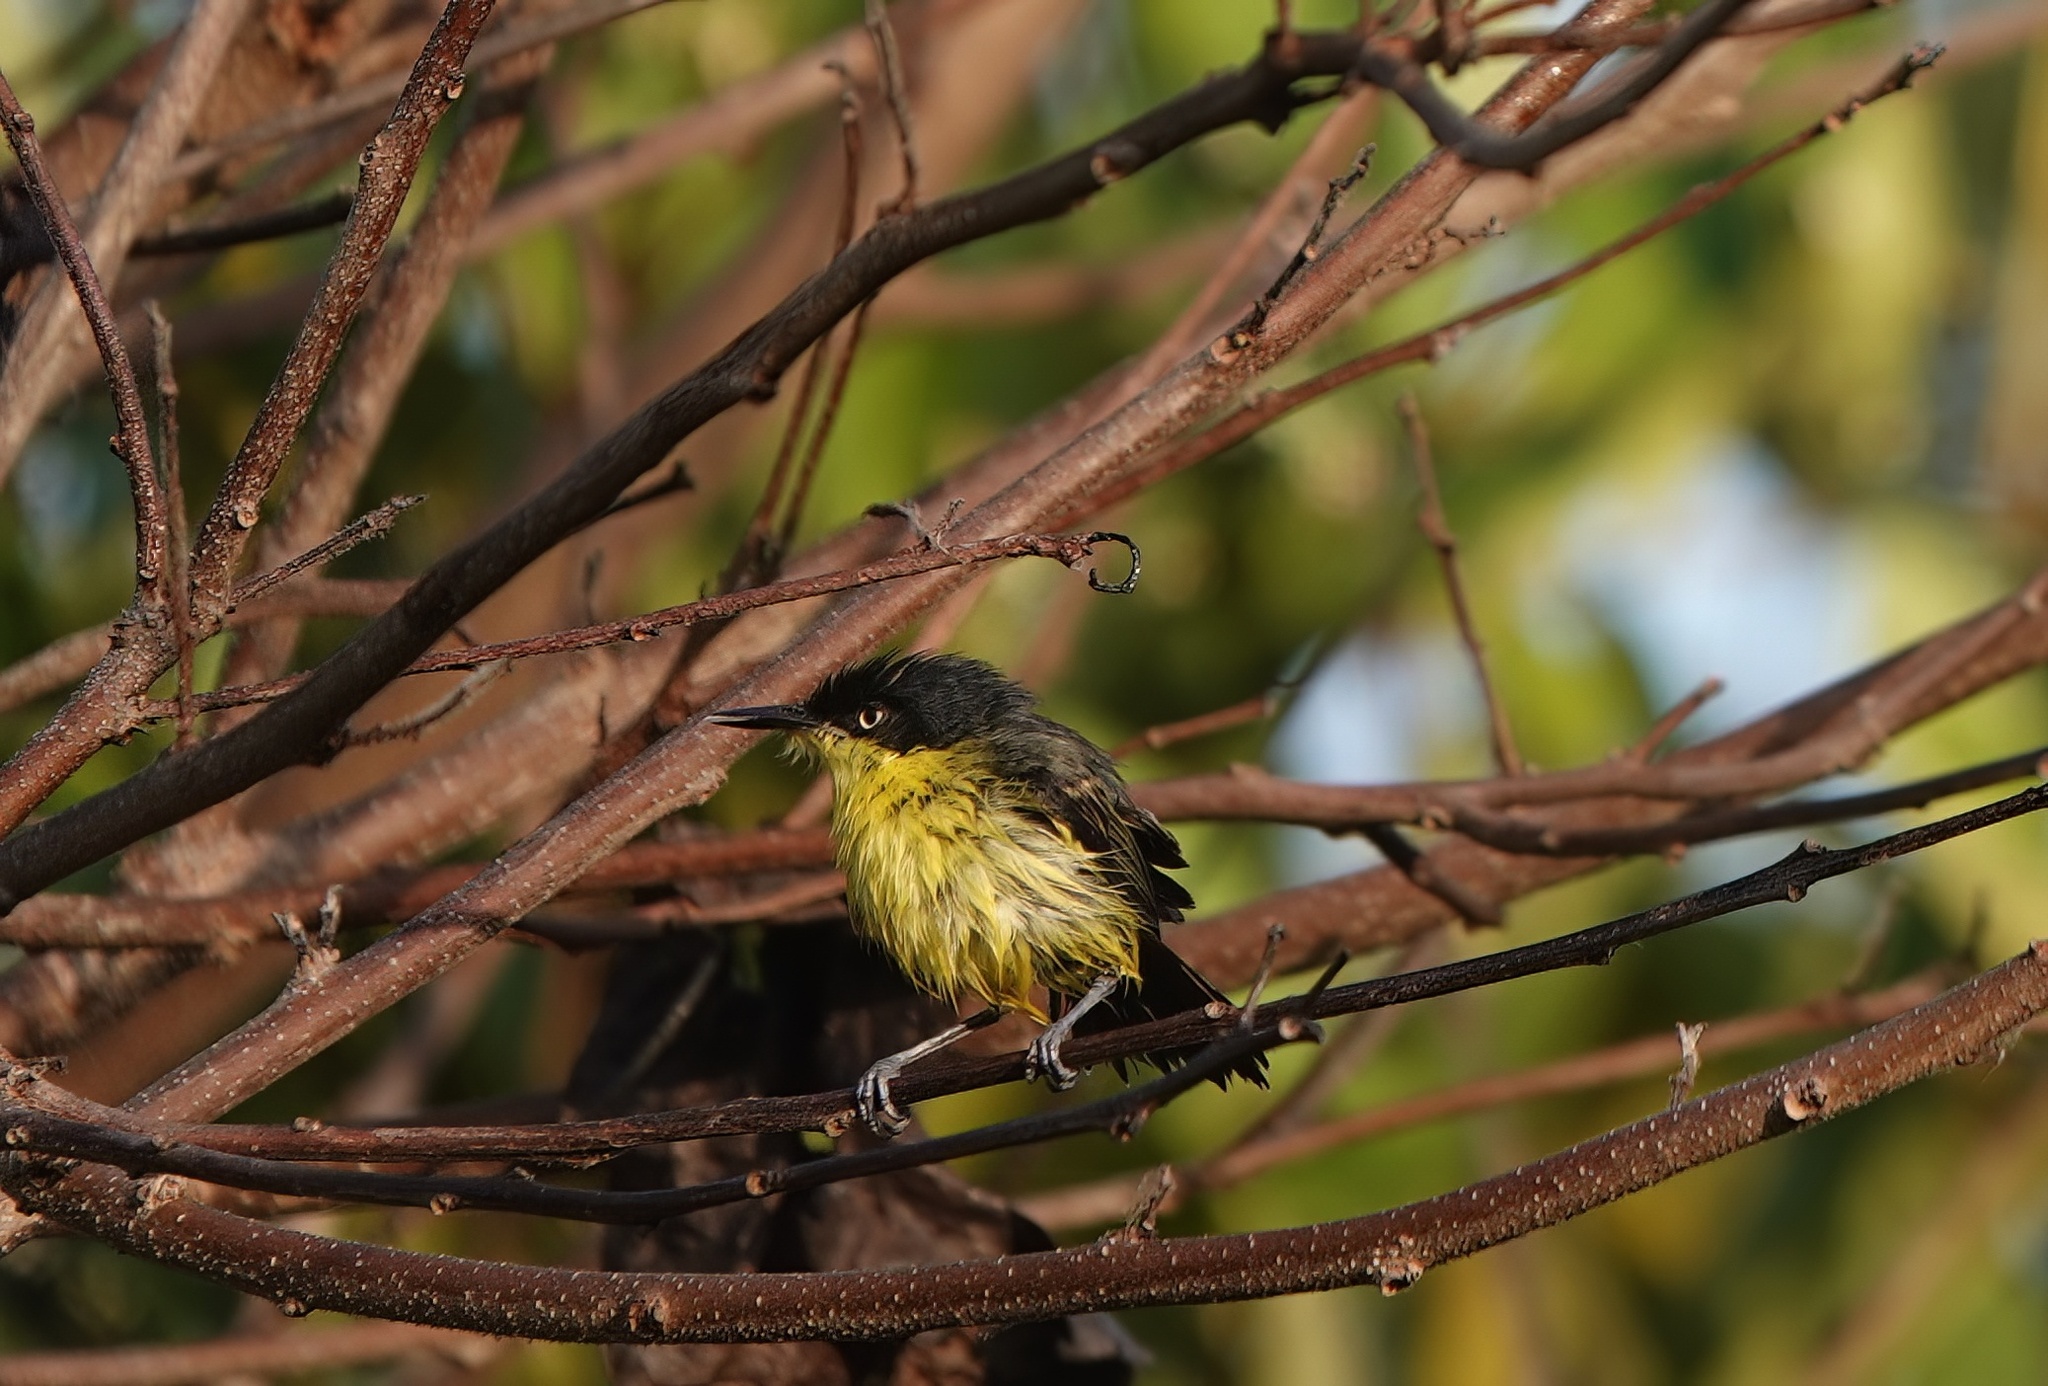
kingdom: Animalia
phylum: Chordata
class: Aves
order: Passeriformes
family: Tyrannidae
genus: Todirostrum
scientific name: Todirostrum cinereum
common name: Common tody-flycatcher
